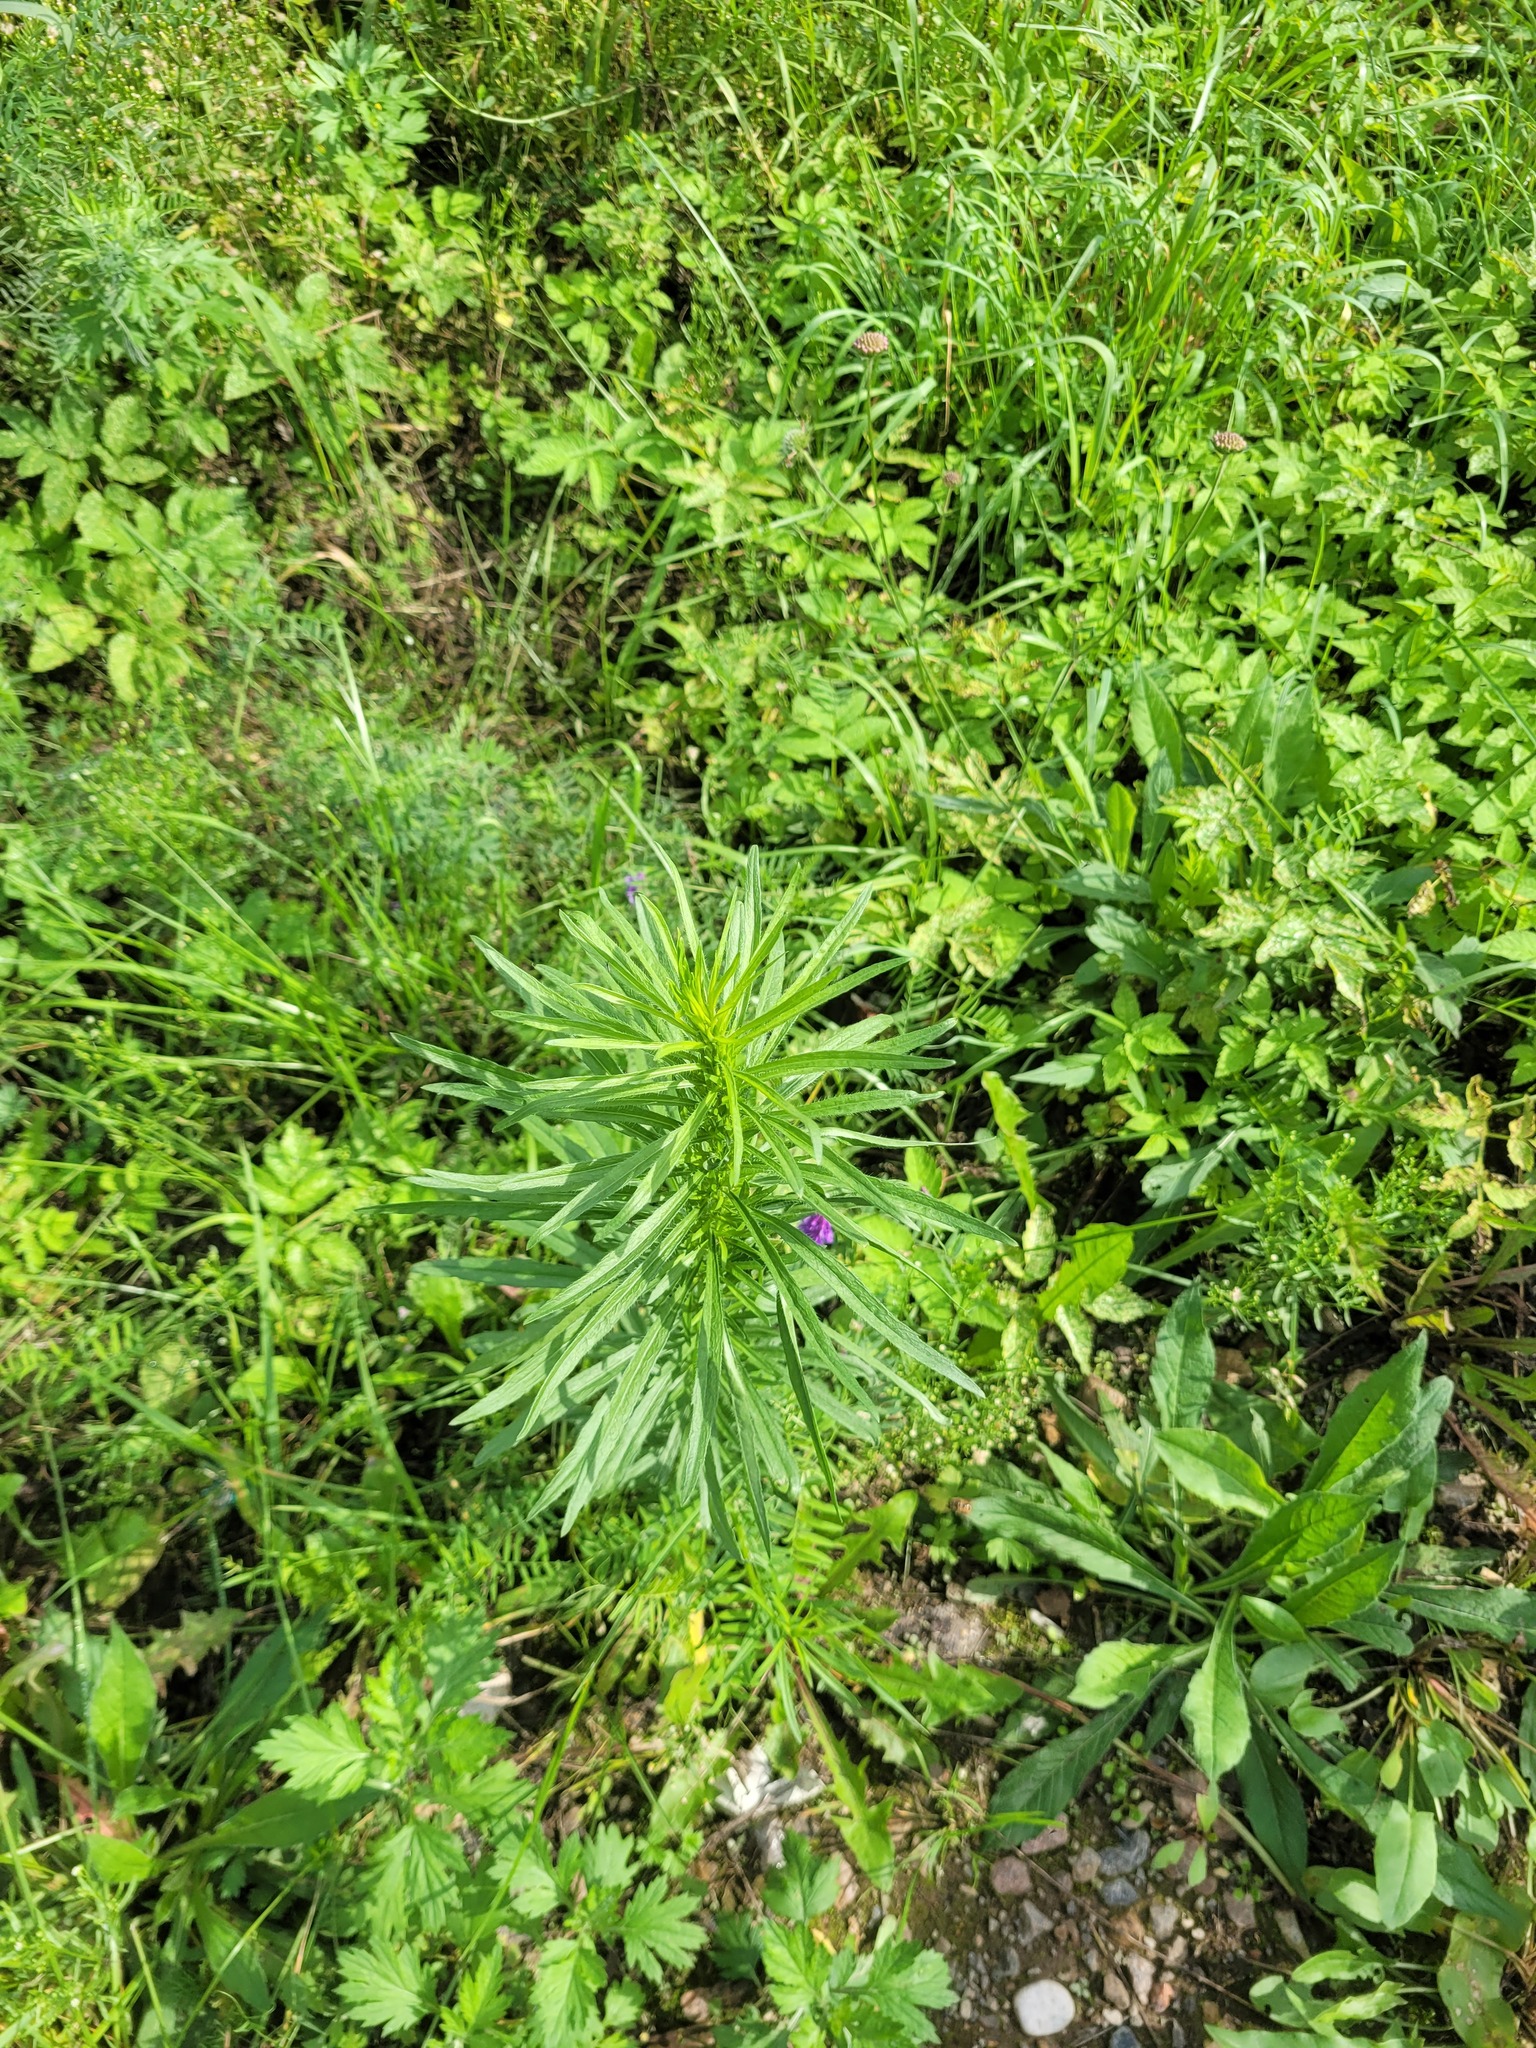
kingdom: Plantae
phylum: Tracheophyta
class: Magnoliopsida
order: Asterales
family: Asteraceae
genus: Erigeron
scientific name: Erigeron canadensis
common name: Canadian fleabane
